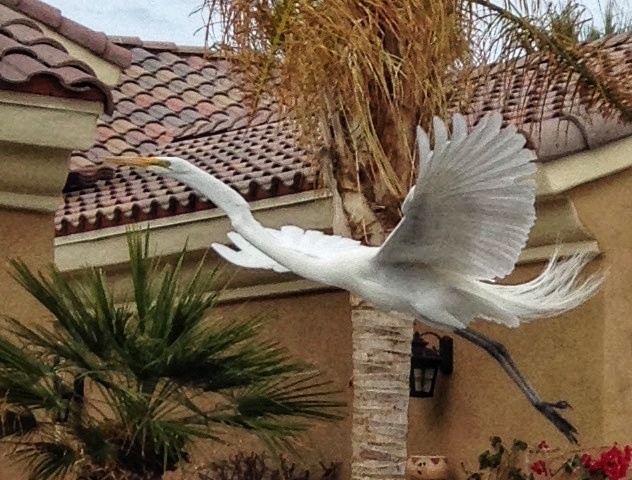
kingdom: Animalia
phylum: Chordata
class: Aves
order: Pelecaniformes
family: Ardeidae
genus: Ardea
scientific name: Ardea alba
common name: Great egret
